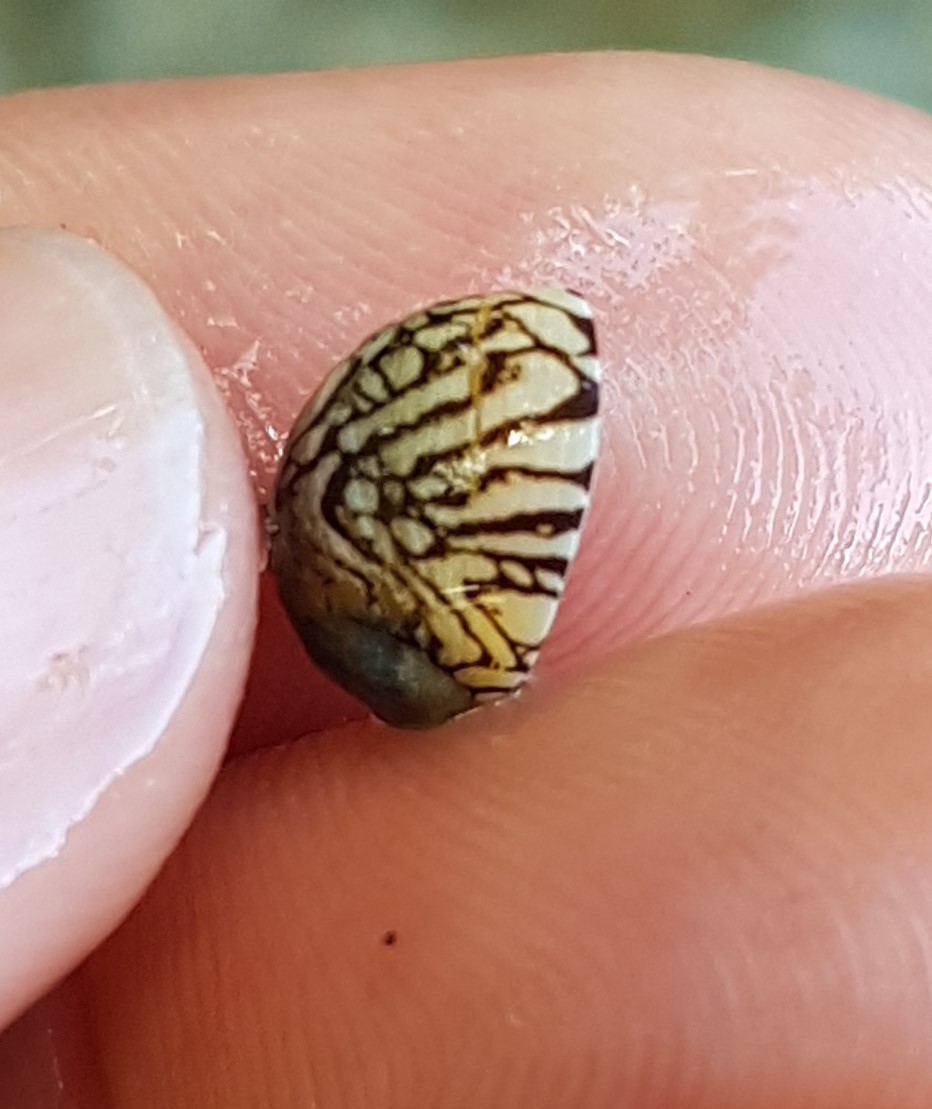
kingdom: Animalia
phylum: Mollusca
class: Gastropoda
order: Cycloneritida
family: Neritidae
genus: Puperita
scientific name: Puperita pupa
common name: Zebra nerite
